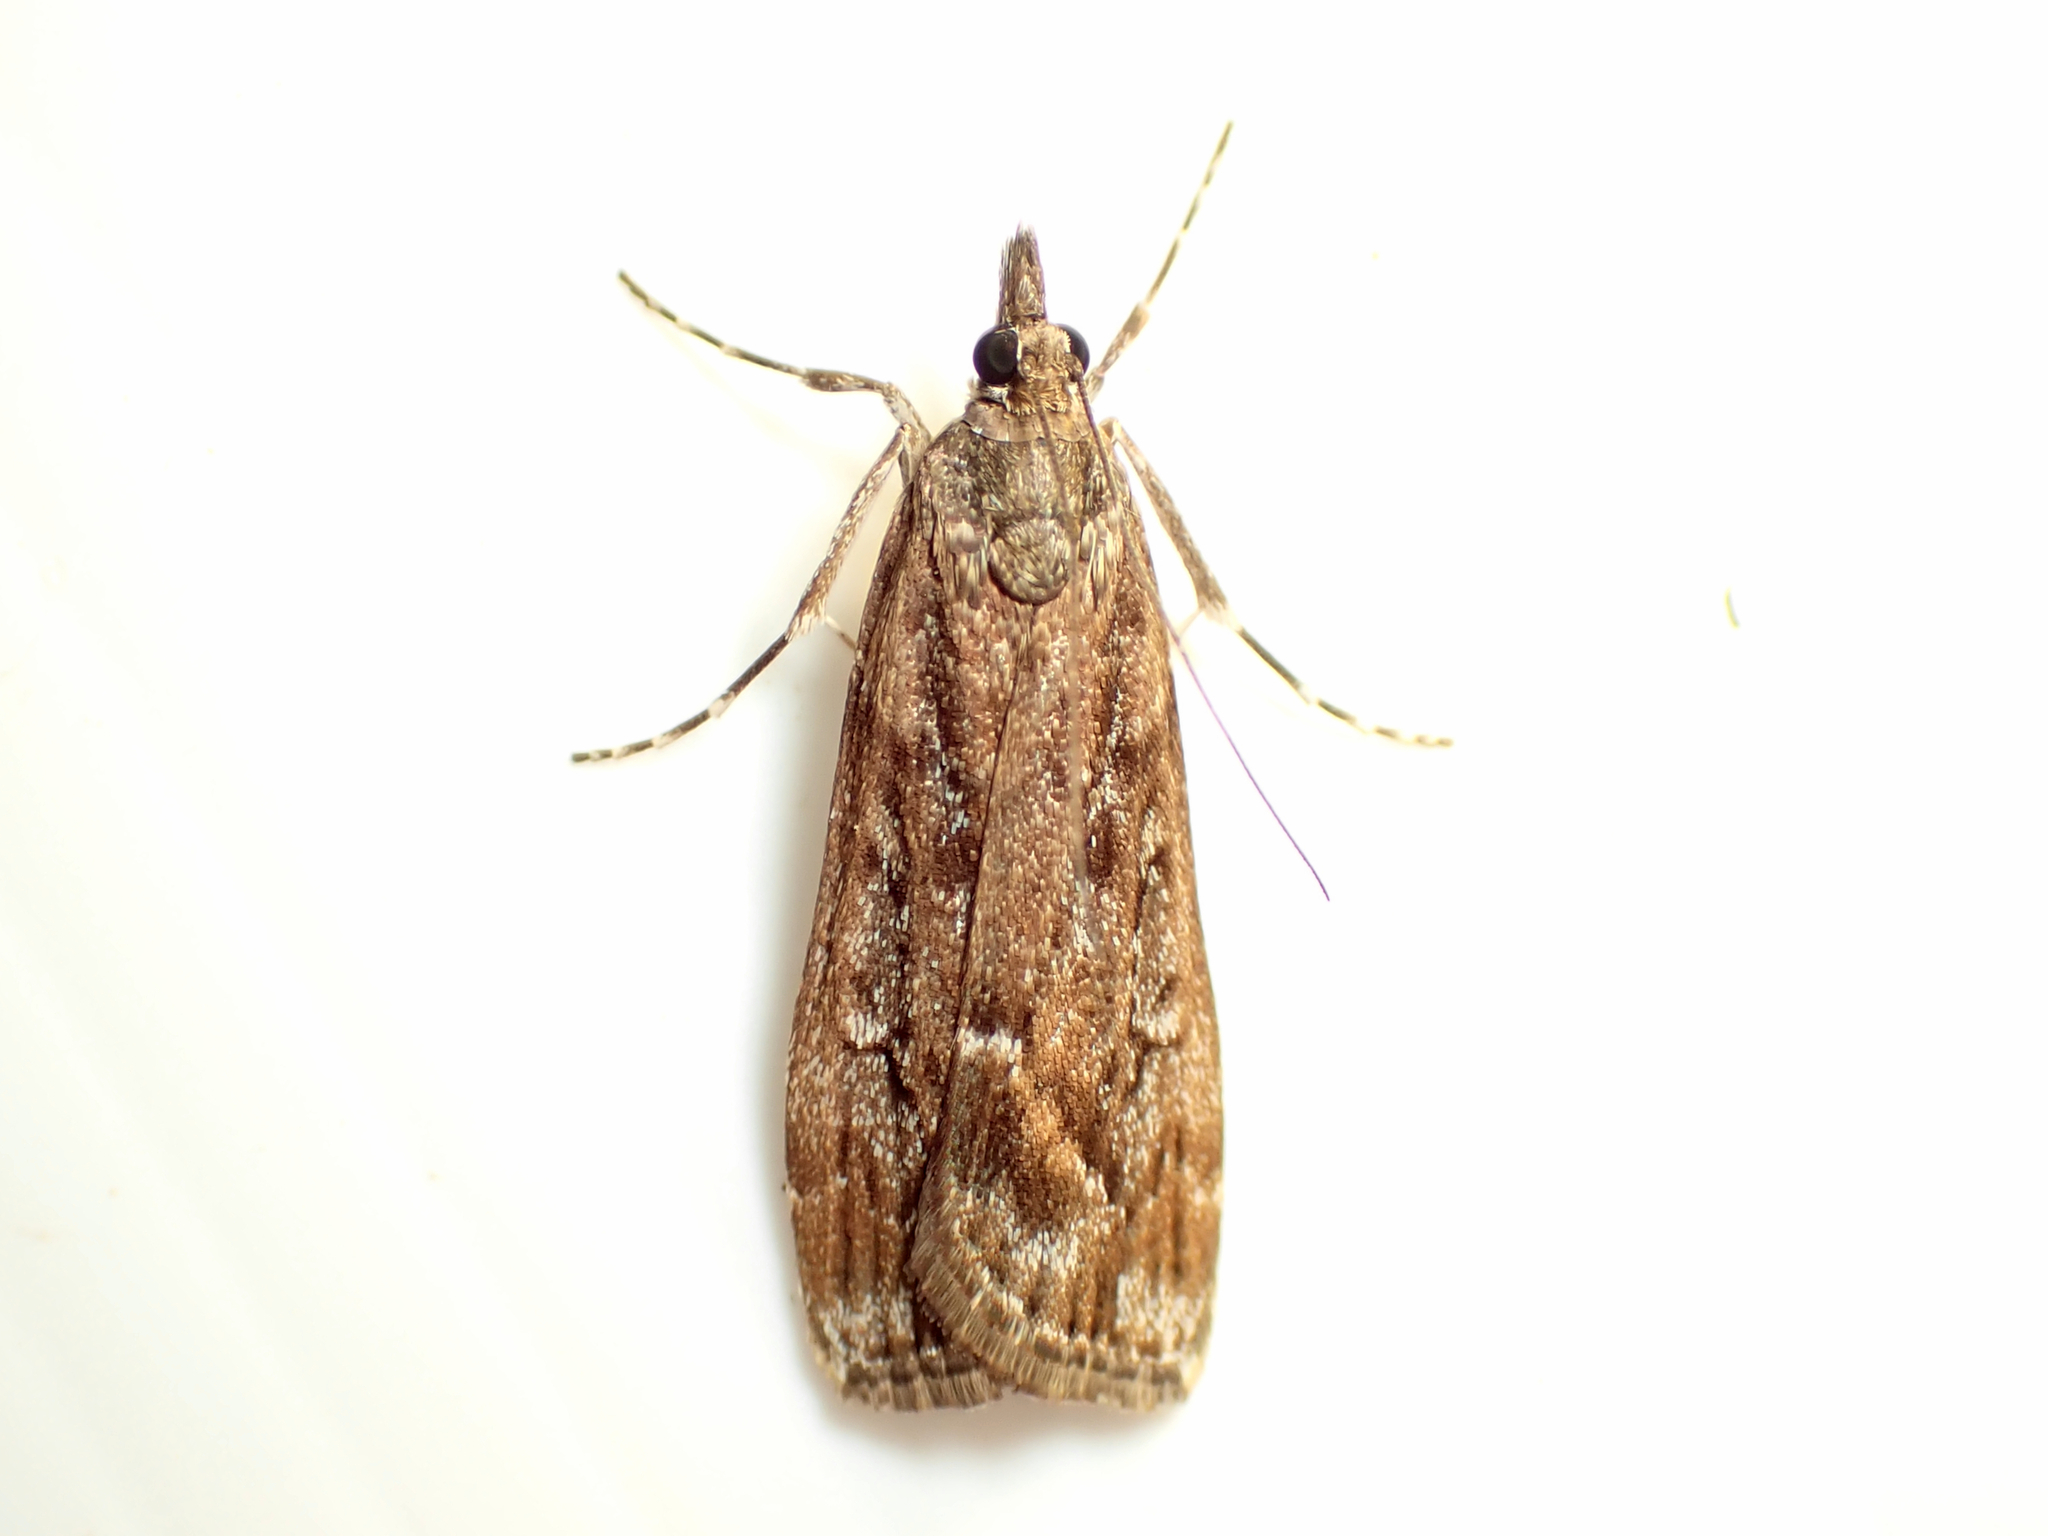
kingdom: Animalia
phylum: Arthropoda
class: Insecta
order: Lepidoptera
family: Crambidae
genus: Eudonia
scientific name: Eudonia submarginalis
